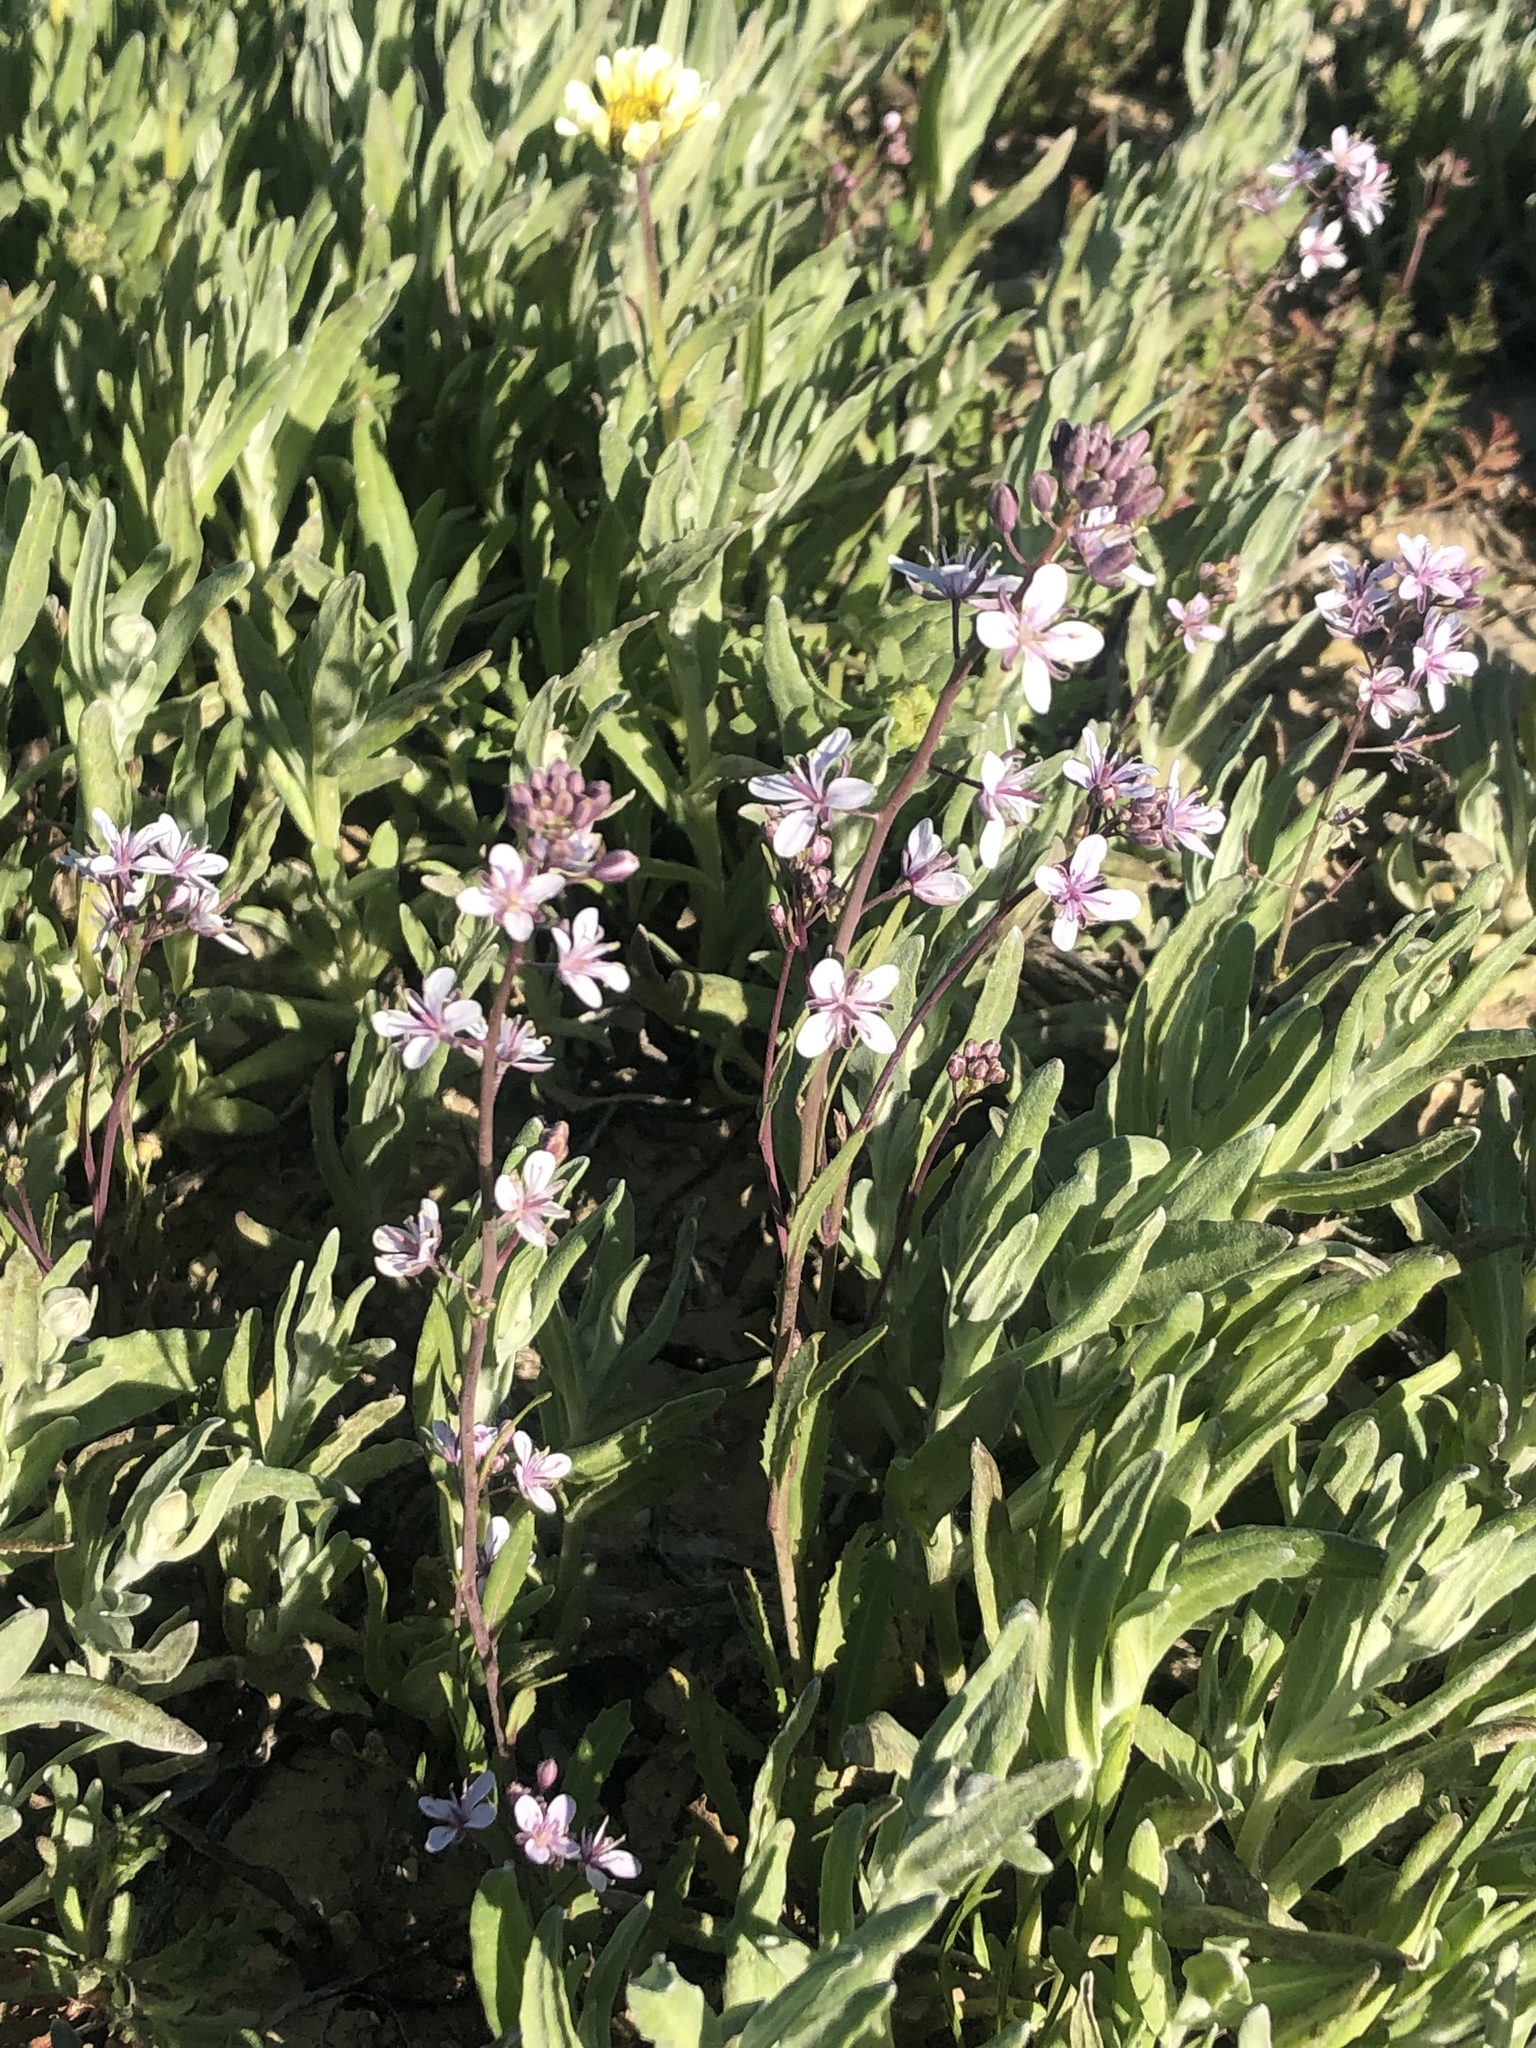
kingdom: Plantae
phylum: Tracheophyta
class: Magnoliopsida
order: Brassicales
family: Brassicaceae
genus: Streptanthus
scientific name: Streptanthus anceps
